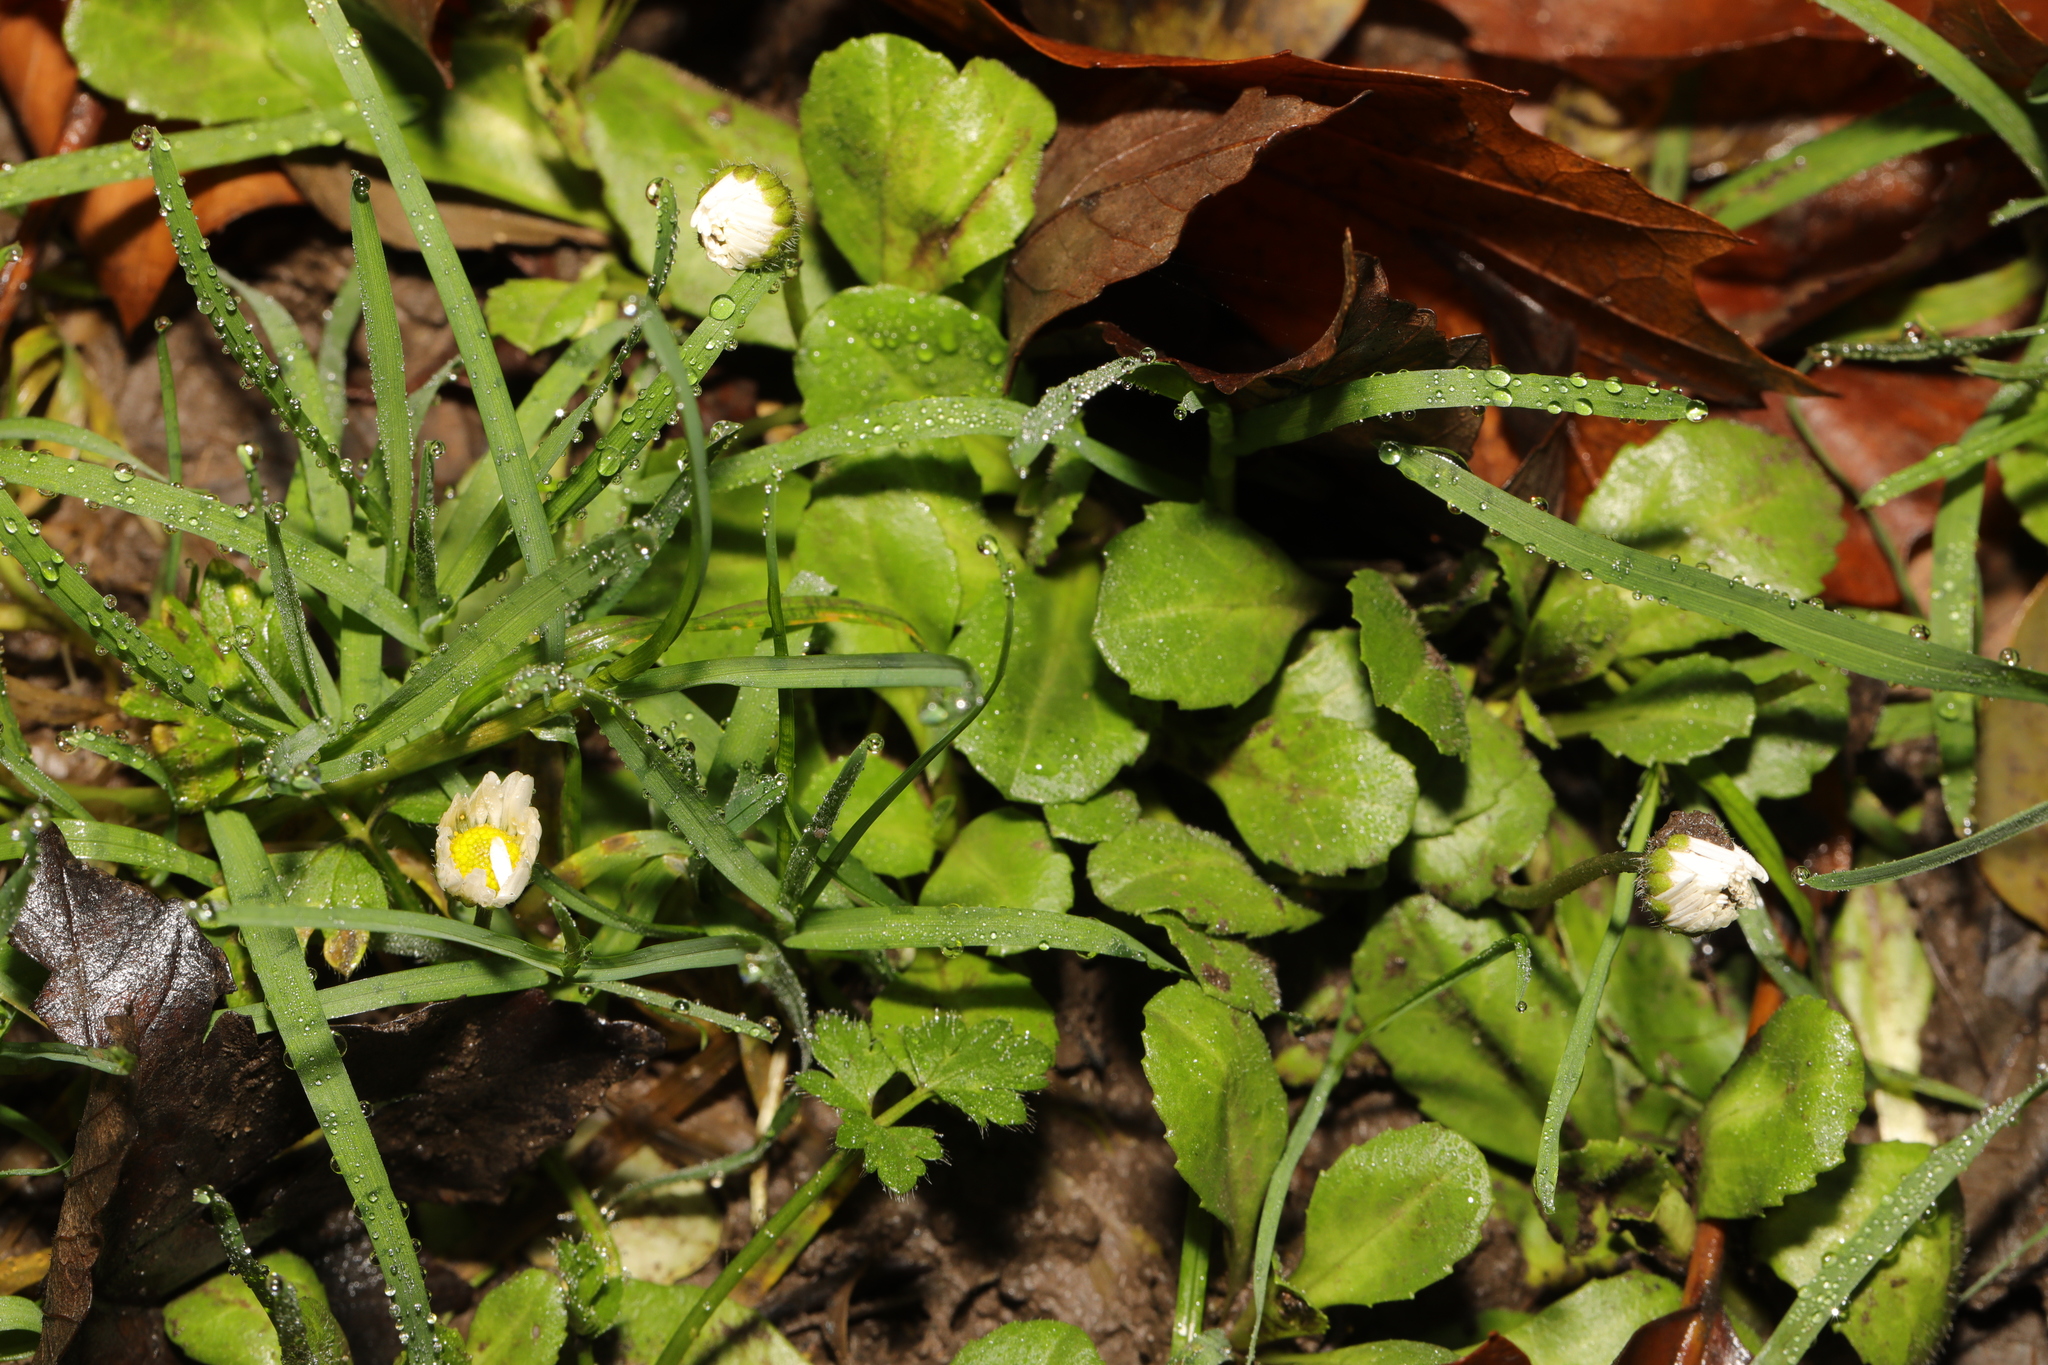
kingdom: Plantae
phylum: Tracheophyta
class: Magnoliopsida
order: Asterales
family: Asteraceae
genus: Bellis
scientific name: Bellis perennis
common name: Lawndaisy
